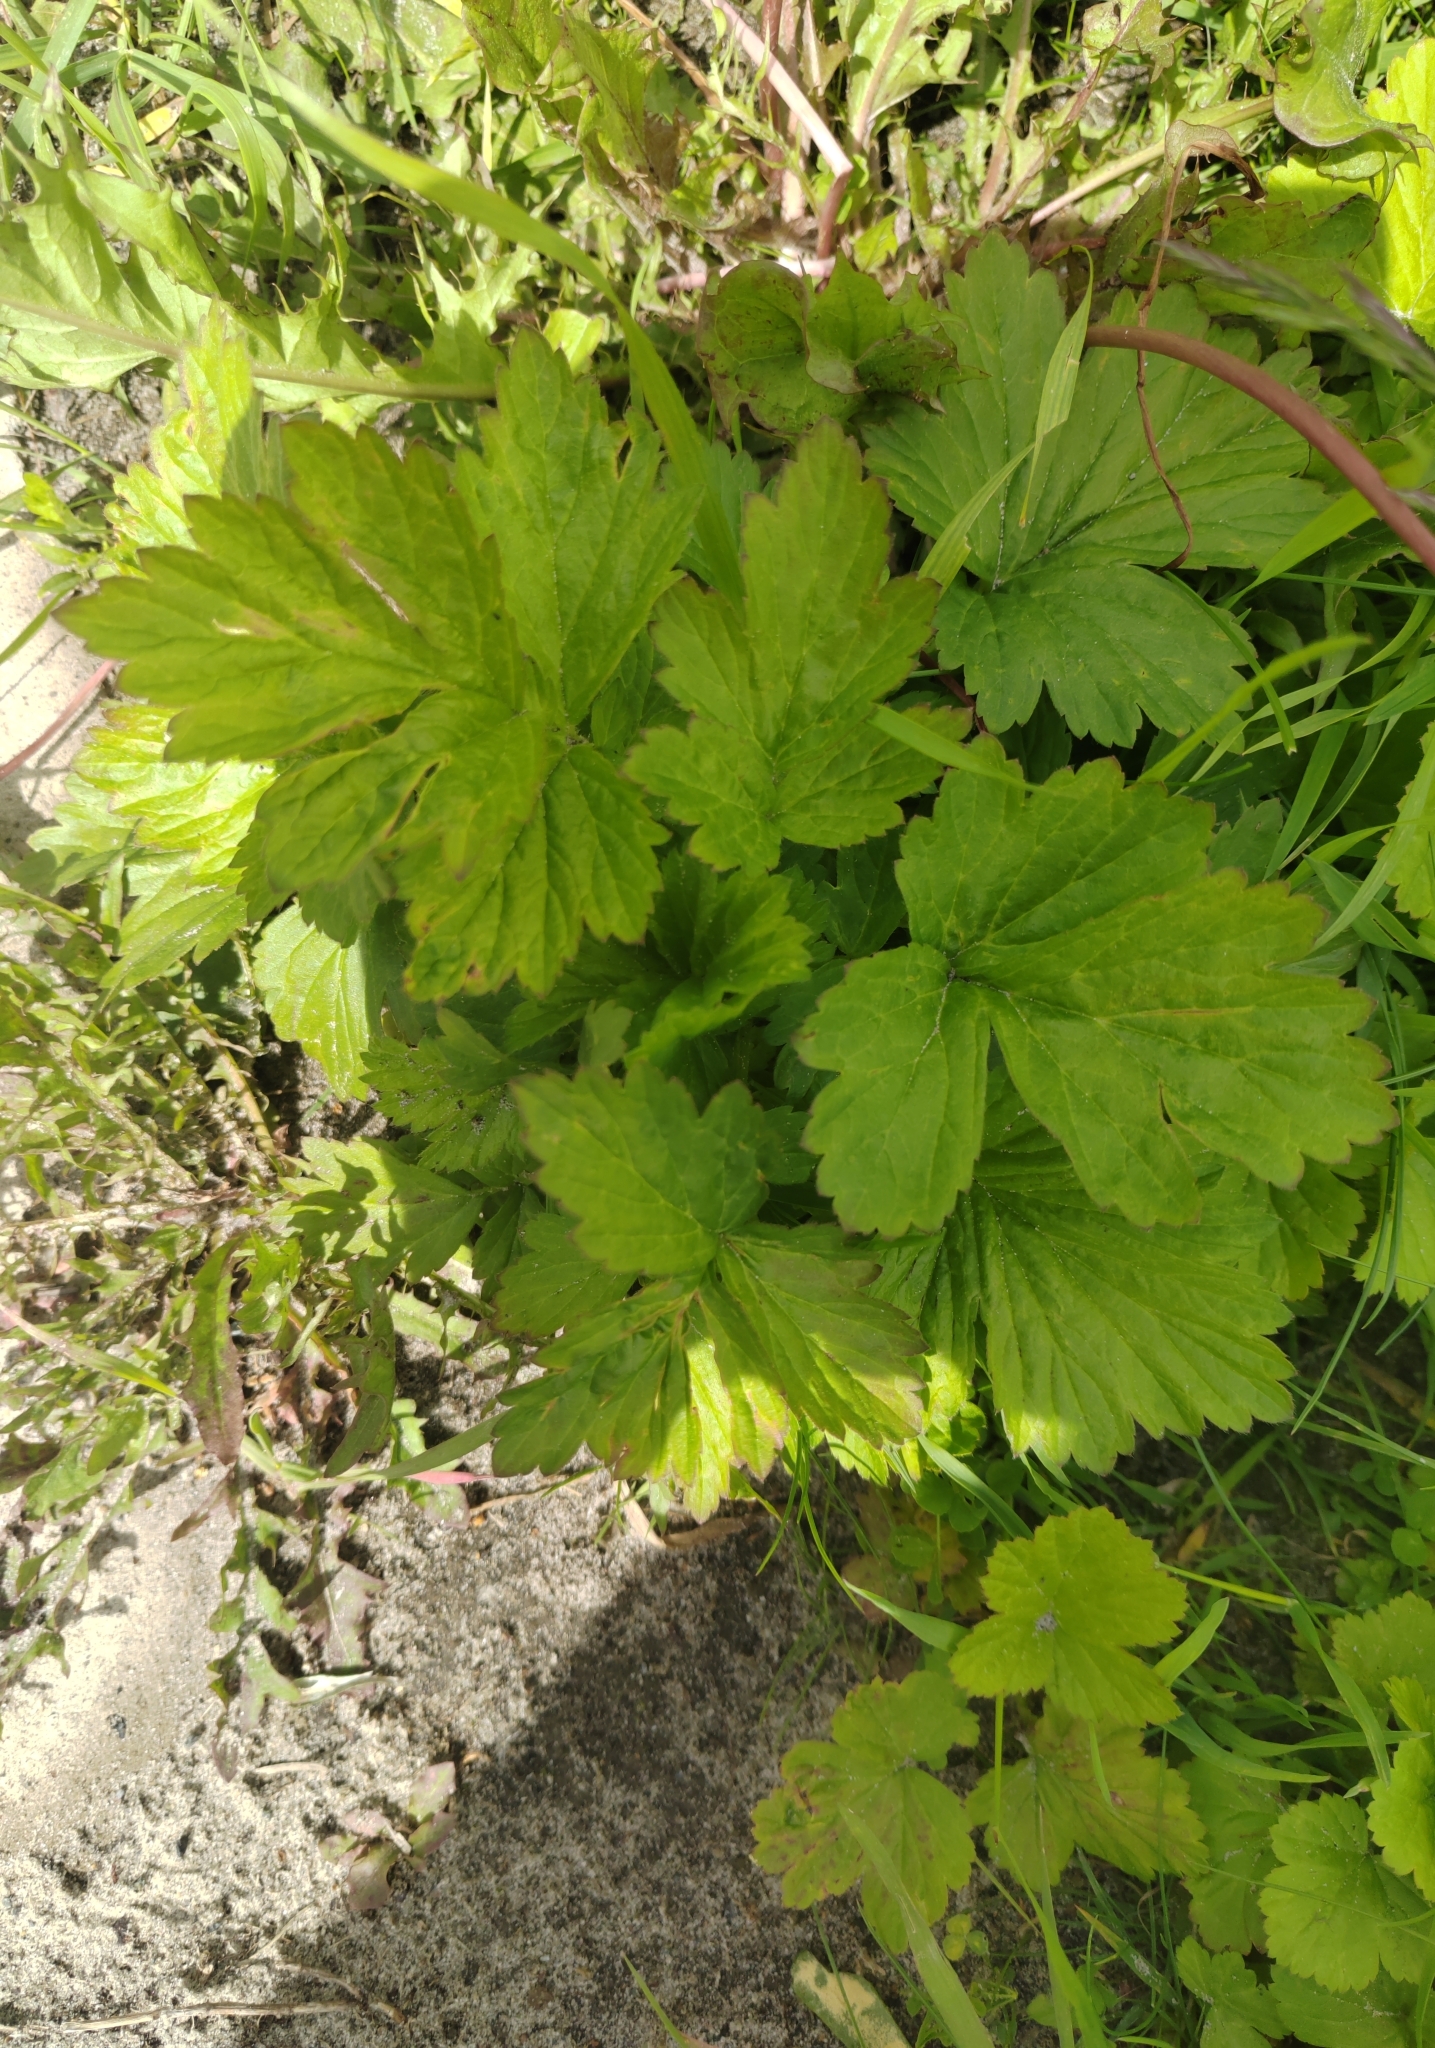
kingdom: Plantae
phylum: Tracheophyta
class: Magnoliopsida
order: Rosales
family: Rosaceae
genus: Geum
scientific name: Geum aleppicum
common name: Yellow avens
